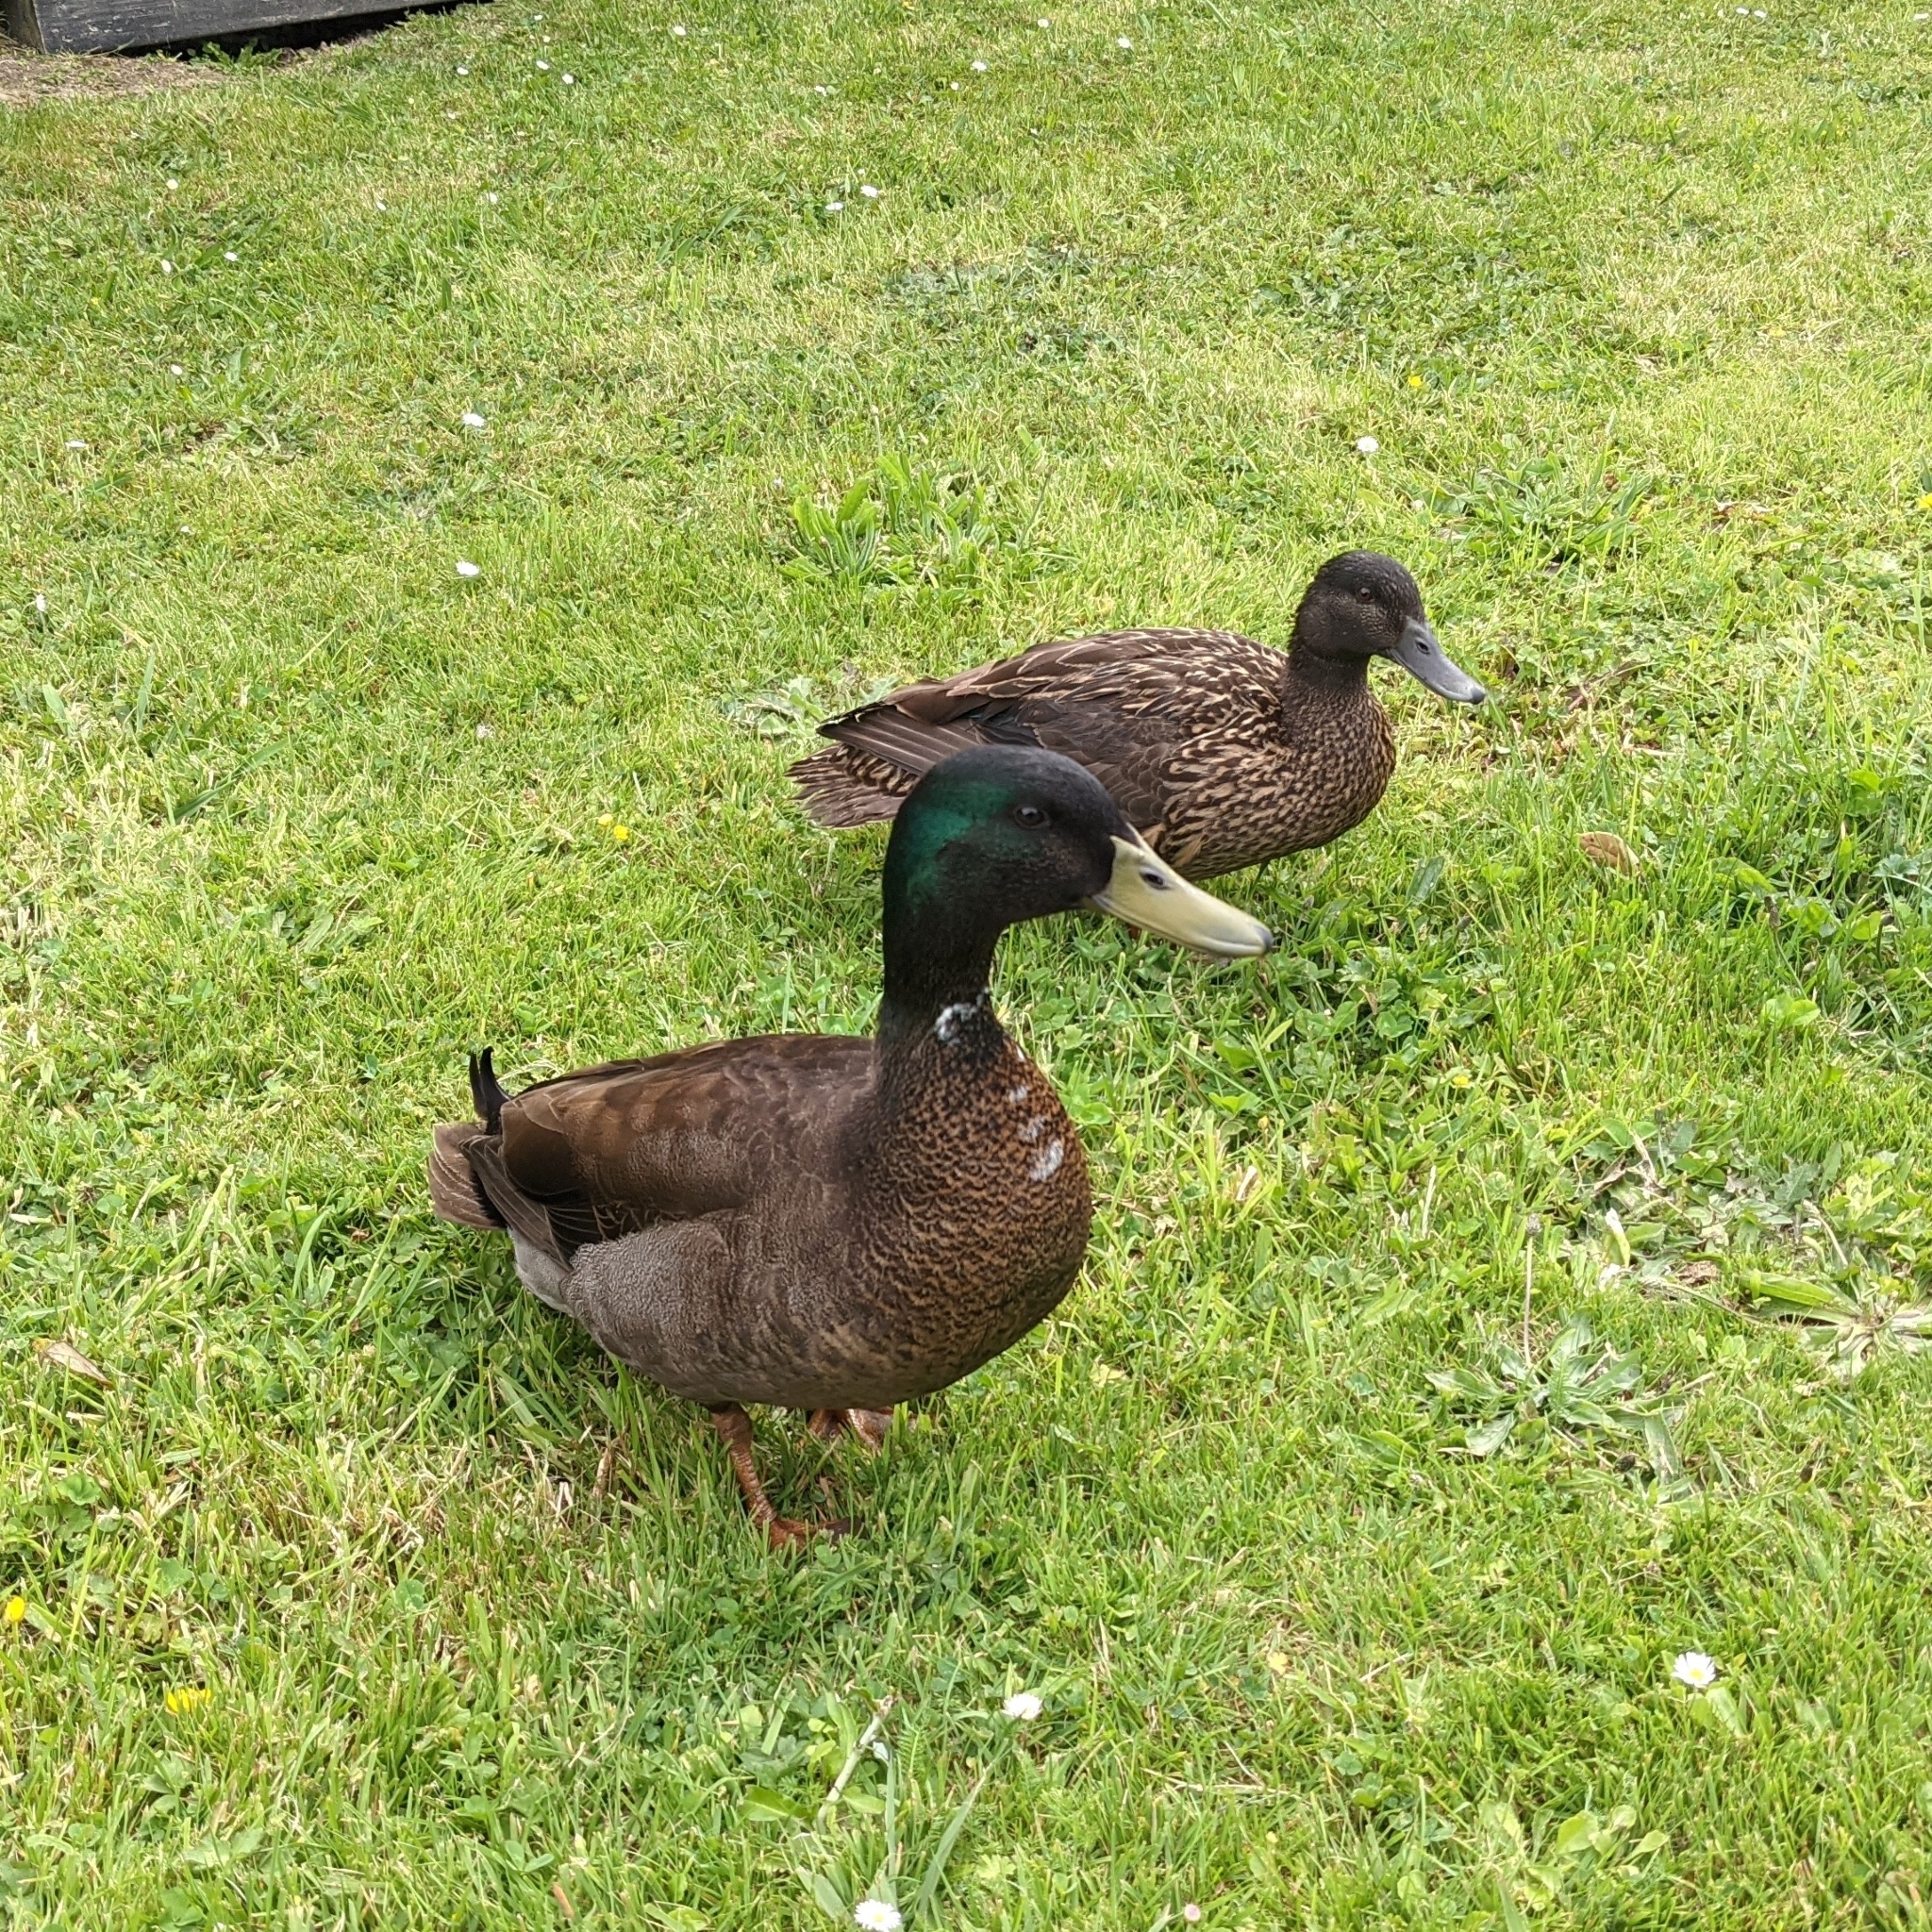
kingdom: Animalia
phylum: Chordata
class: Aves
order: Anseriformes
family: Anatidae
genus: Anas
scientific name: Anas platyrhynchos
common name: Mallard
